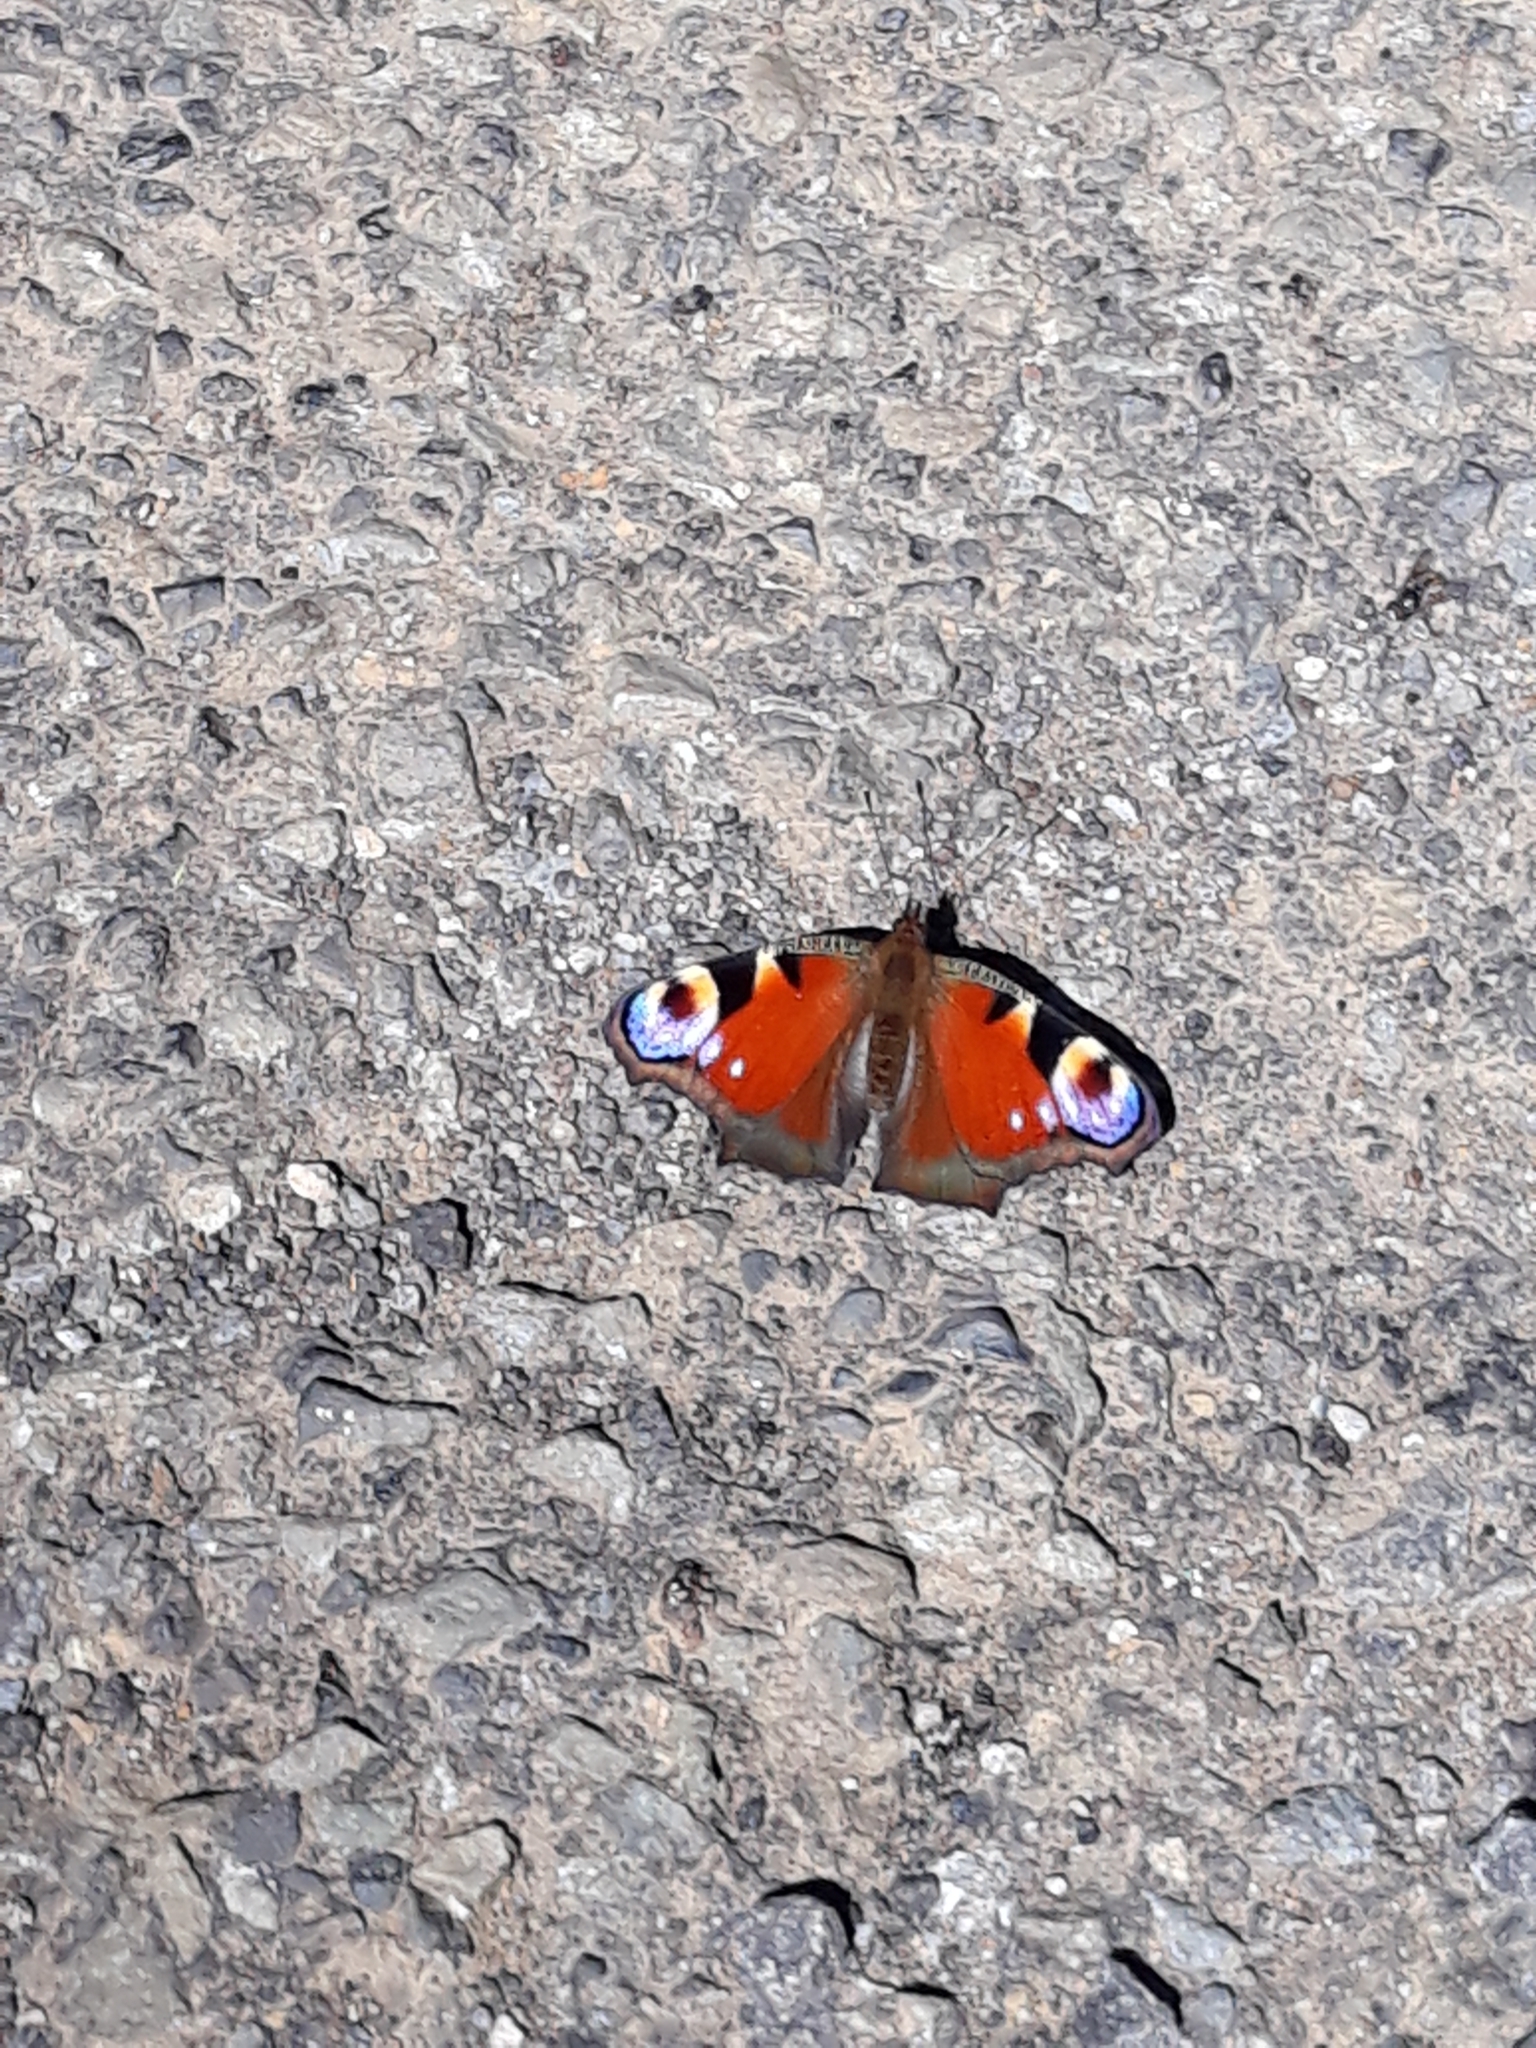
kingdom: Animalia
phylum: Arthropoda
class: Insecta
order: Lepidoptera
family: Nymphalidae
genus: Aglais
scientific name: Aglais io
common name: Peacock
